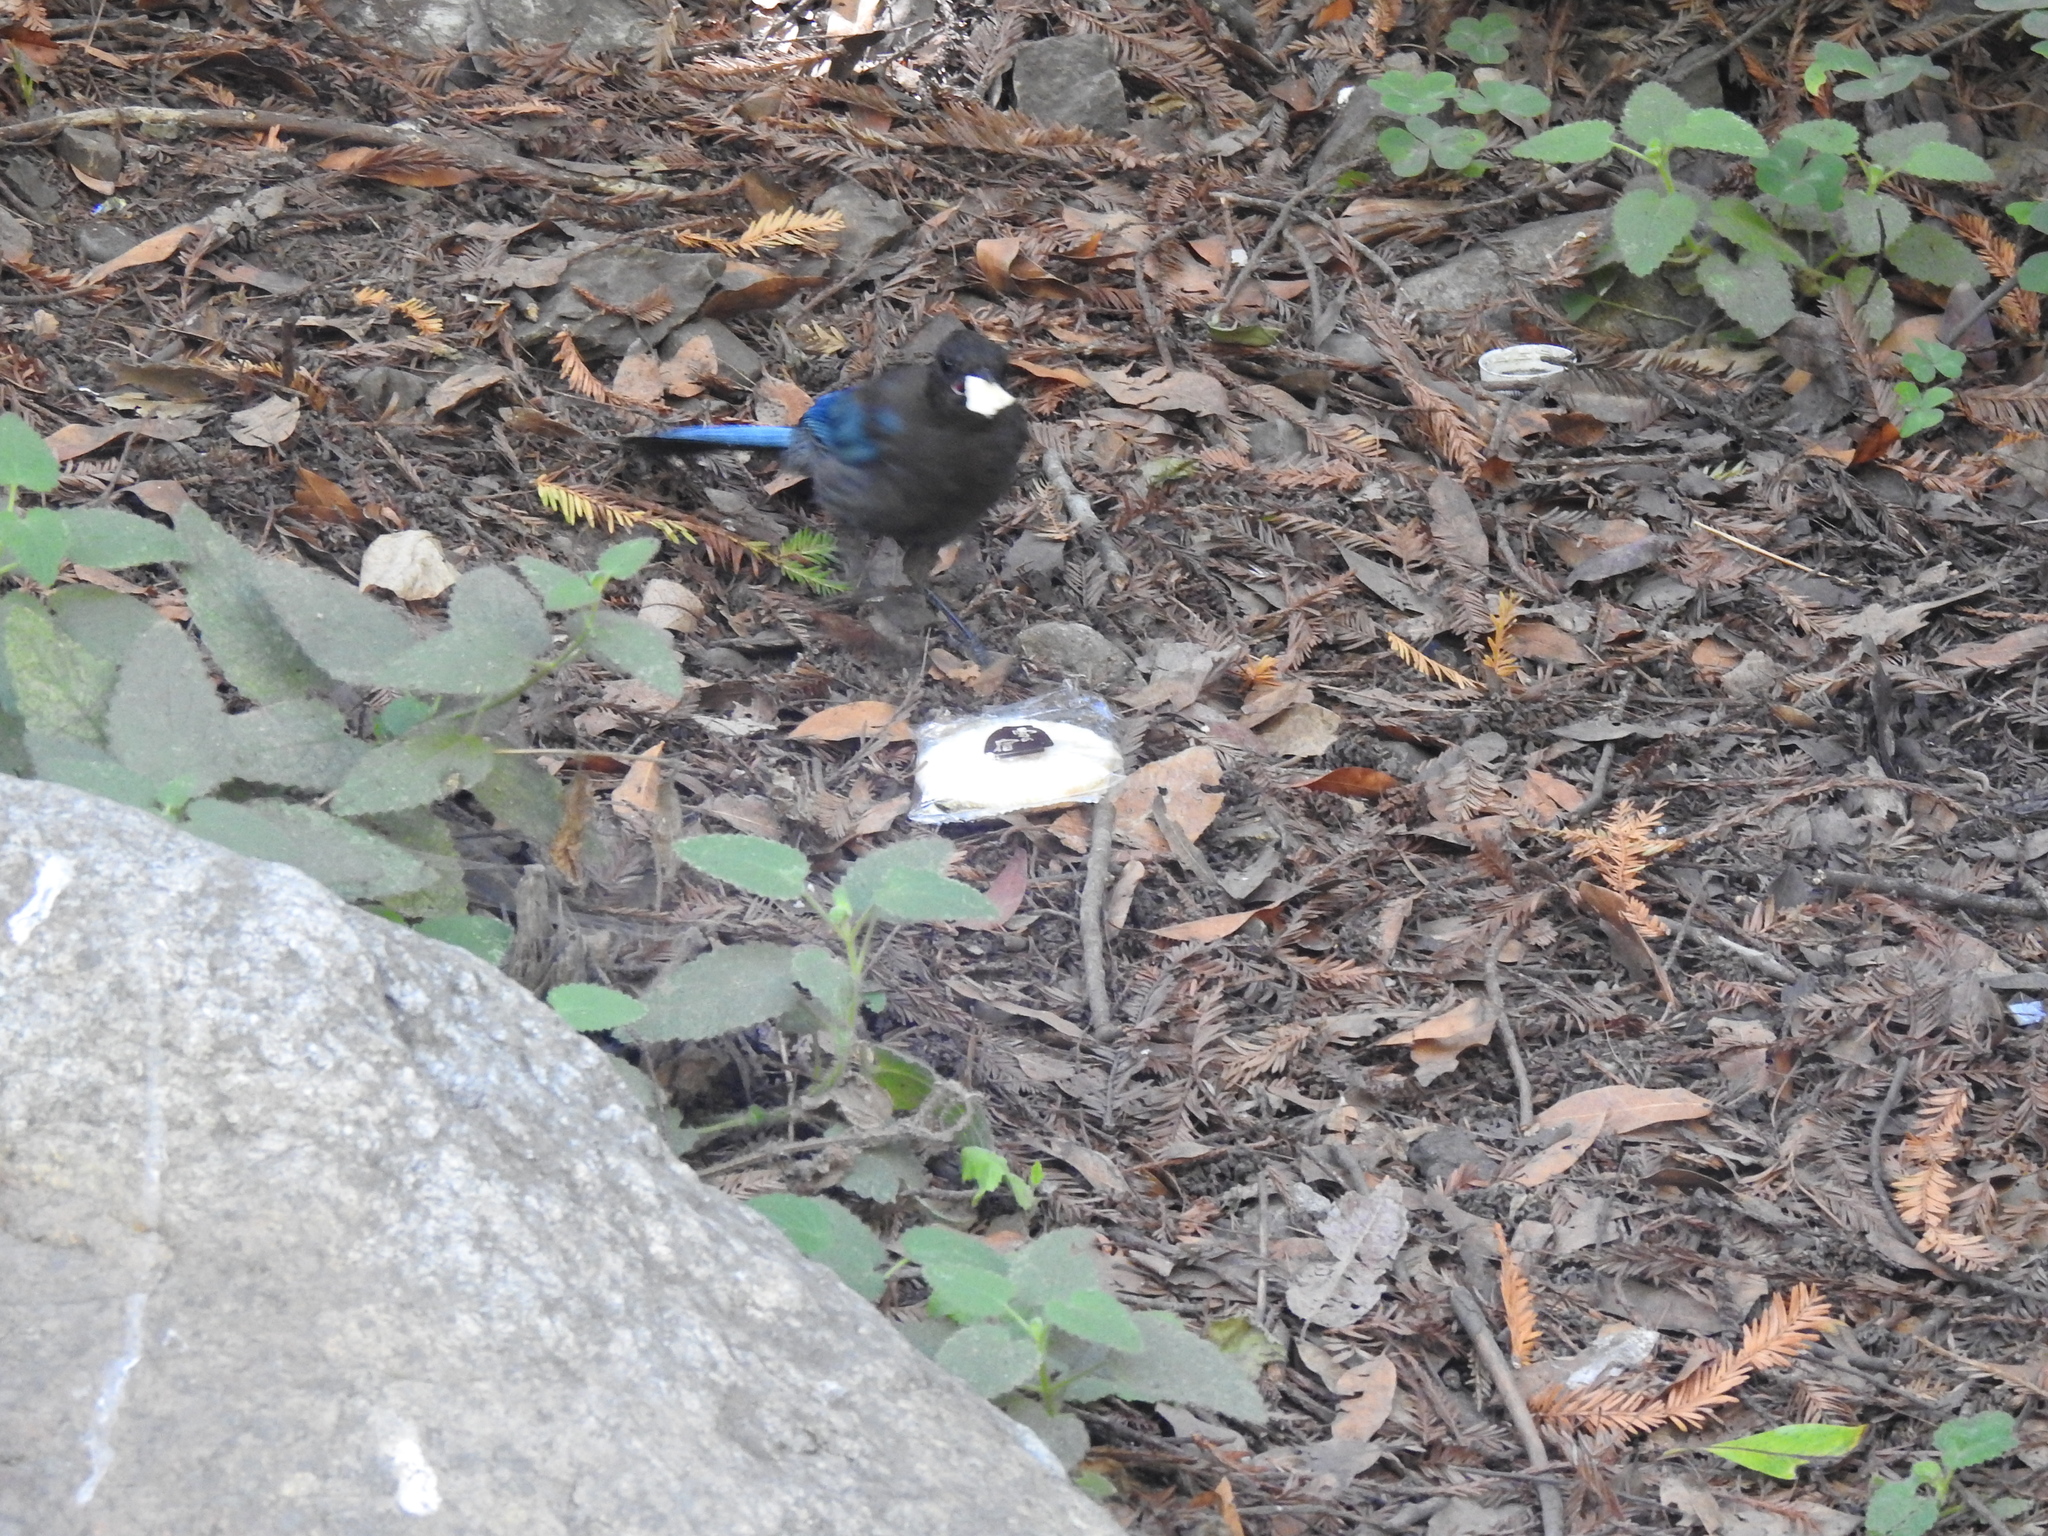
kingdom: Animalia
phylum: Chordata
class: Aves
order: Passeriformes
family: Corvidae
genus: Cyanocitta
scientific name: Cyanocitta stelleri
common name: Steller's jay
